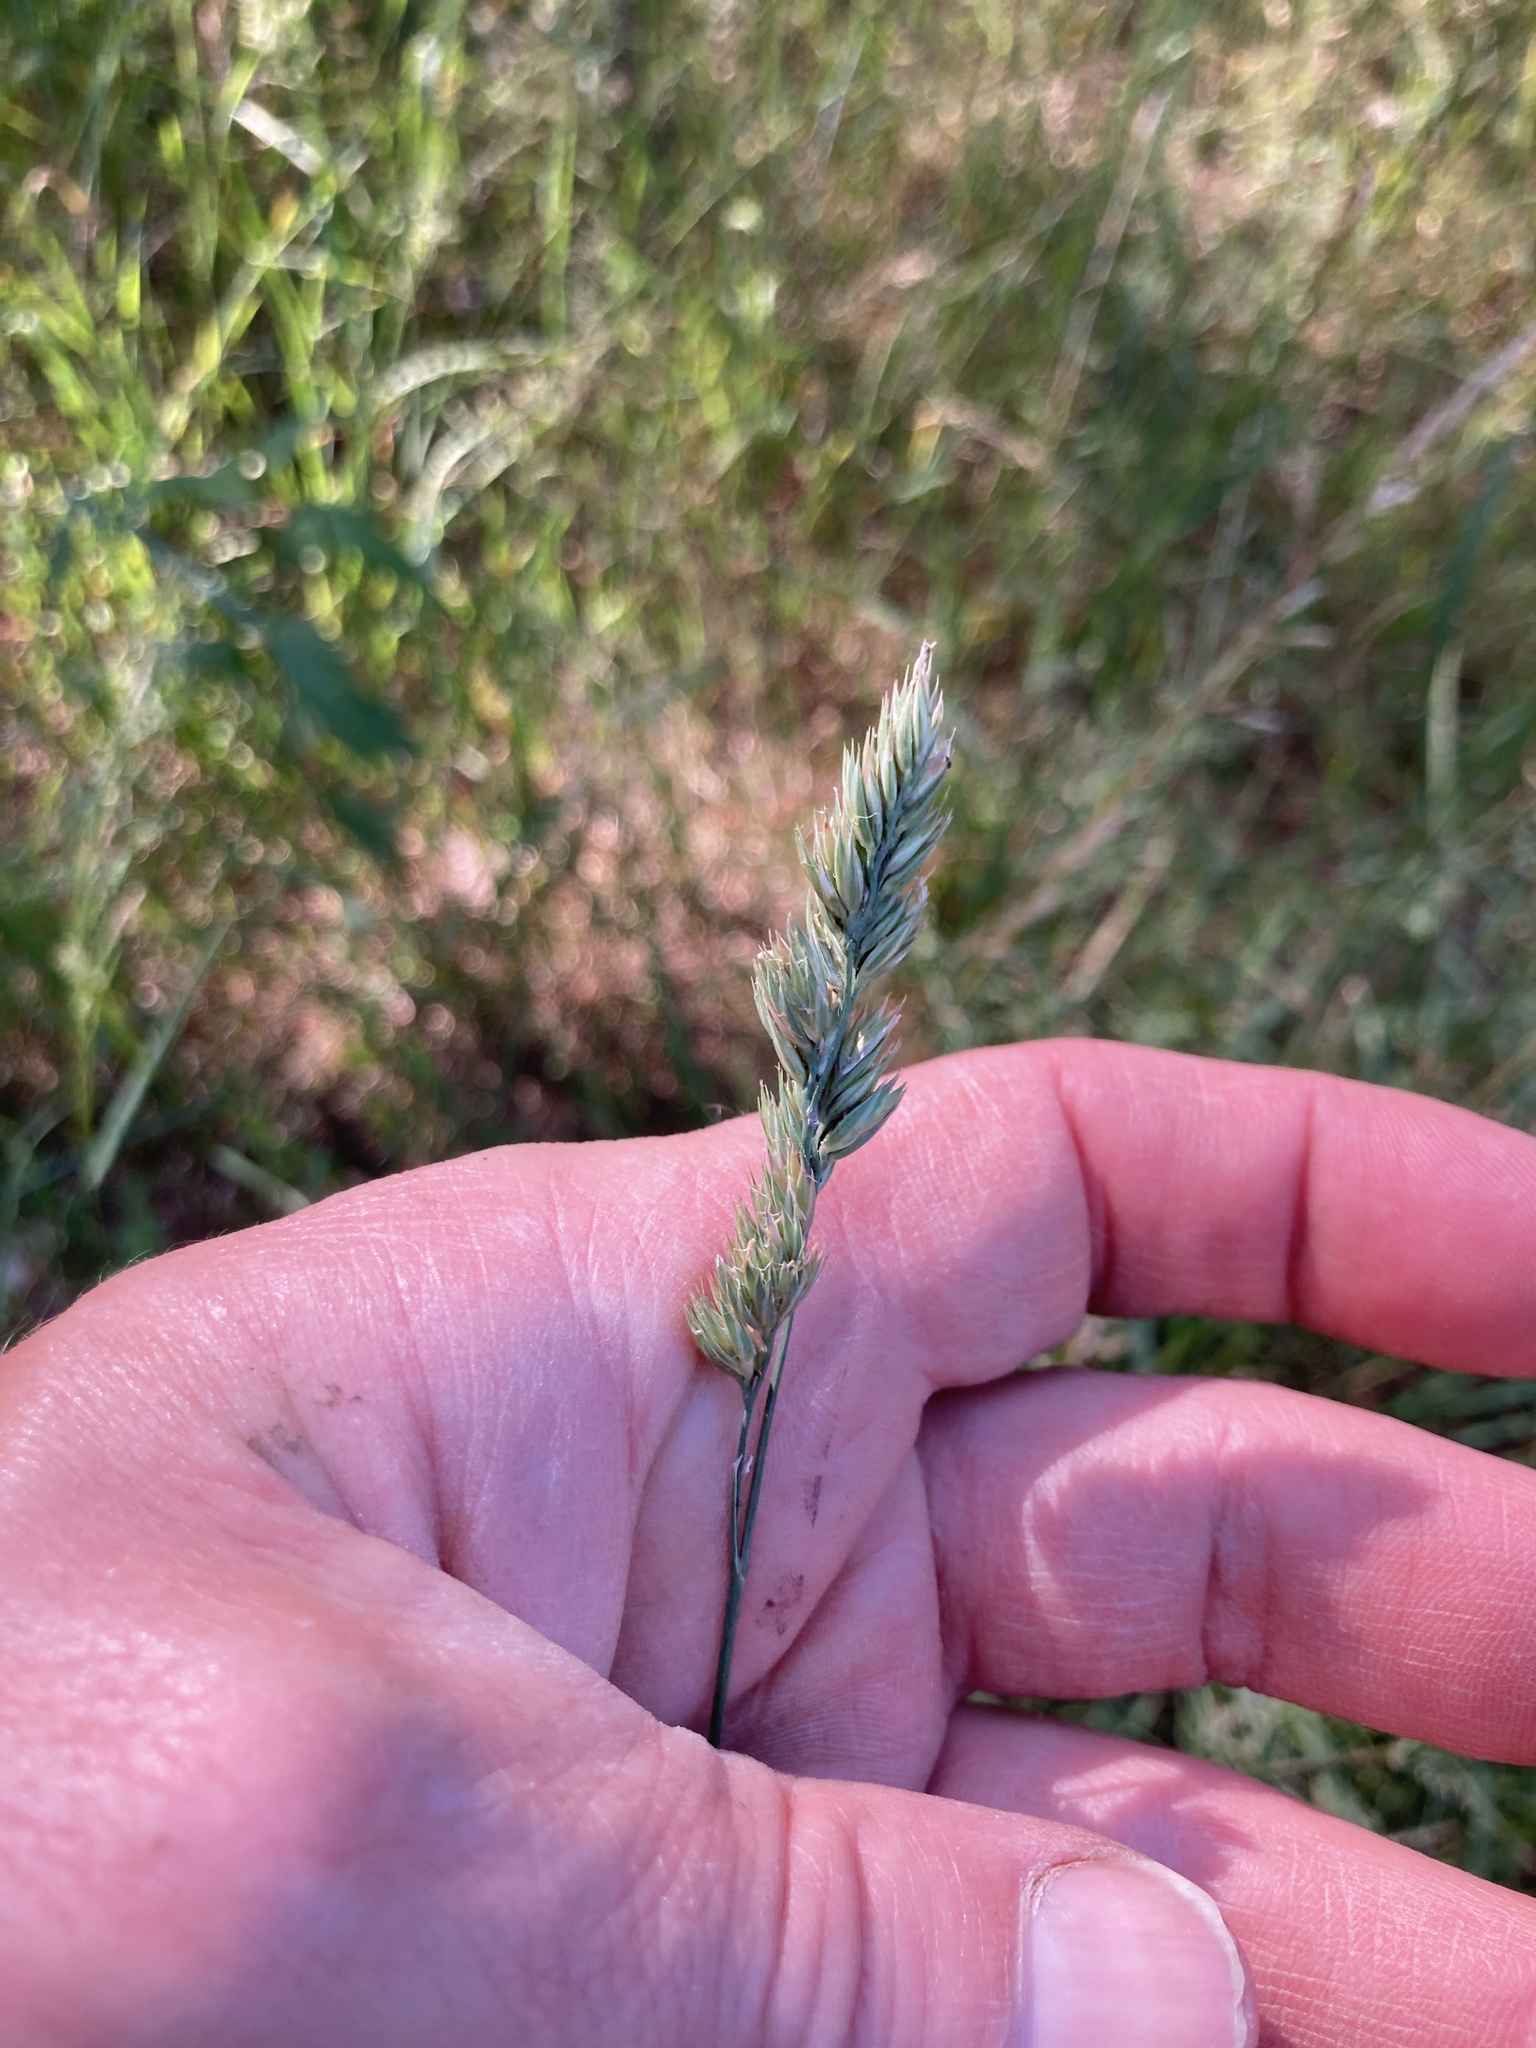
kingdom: Plantae
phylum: Tracheophyta
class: Liliopsida
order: Poales
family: Poaceae
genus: Dactylis
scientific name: Dactylis glomerata
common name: Orchardgrass
